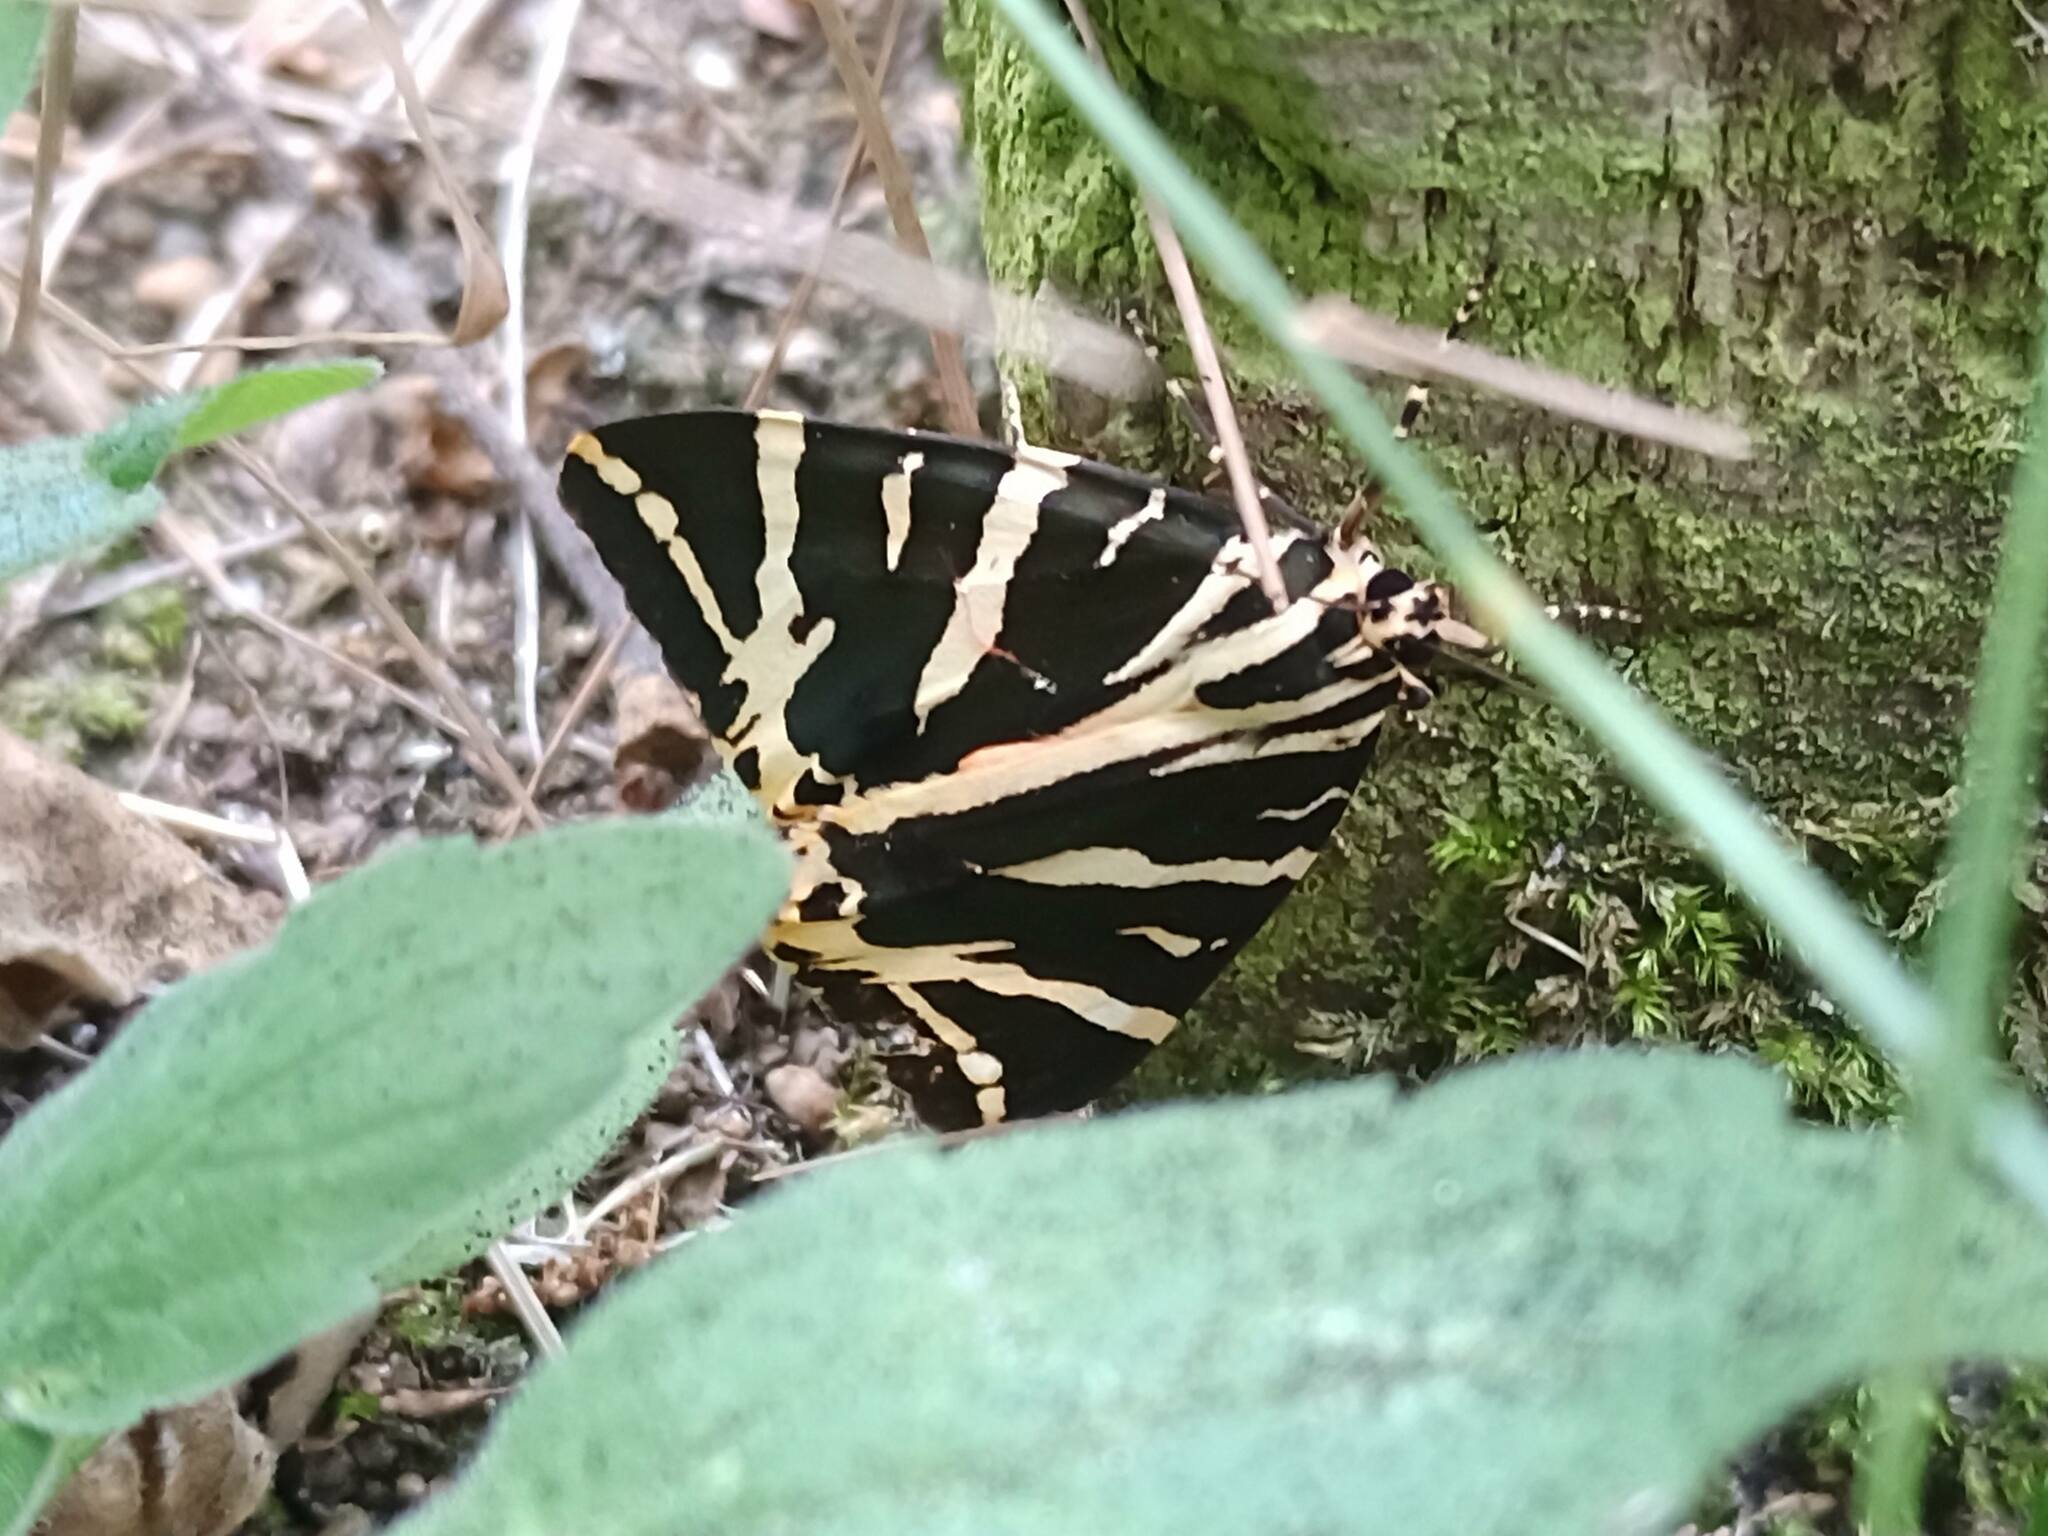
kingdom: Animalia
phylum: Arthropoda
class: Insecta
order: Lepidoptera
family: Erebidae
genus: Euplagia
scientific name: Euplagia quadripunctaria
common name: Jersey tiger
